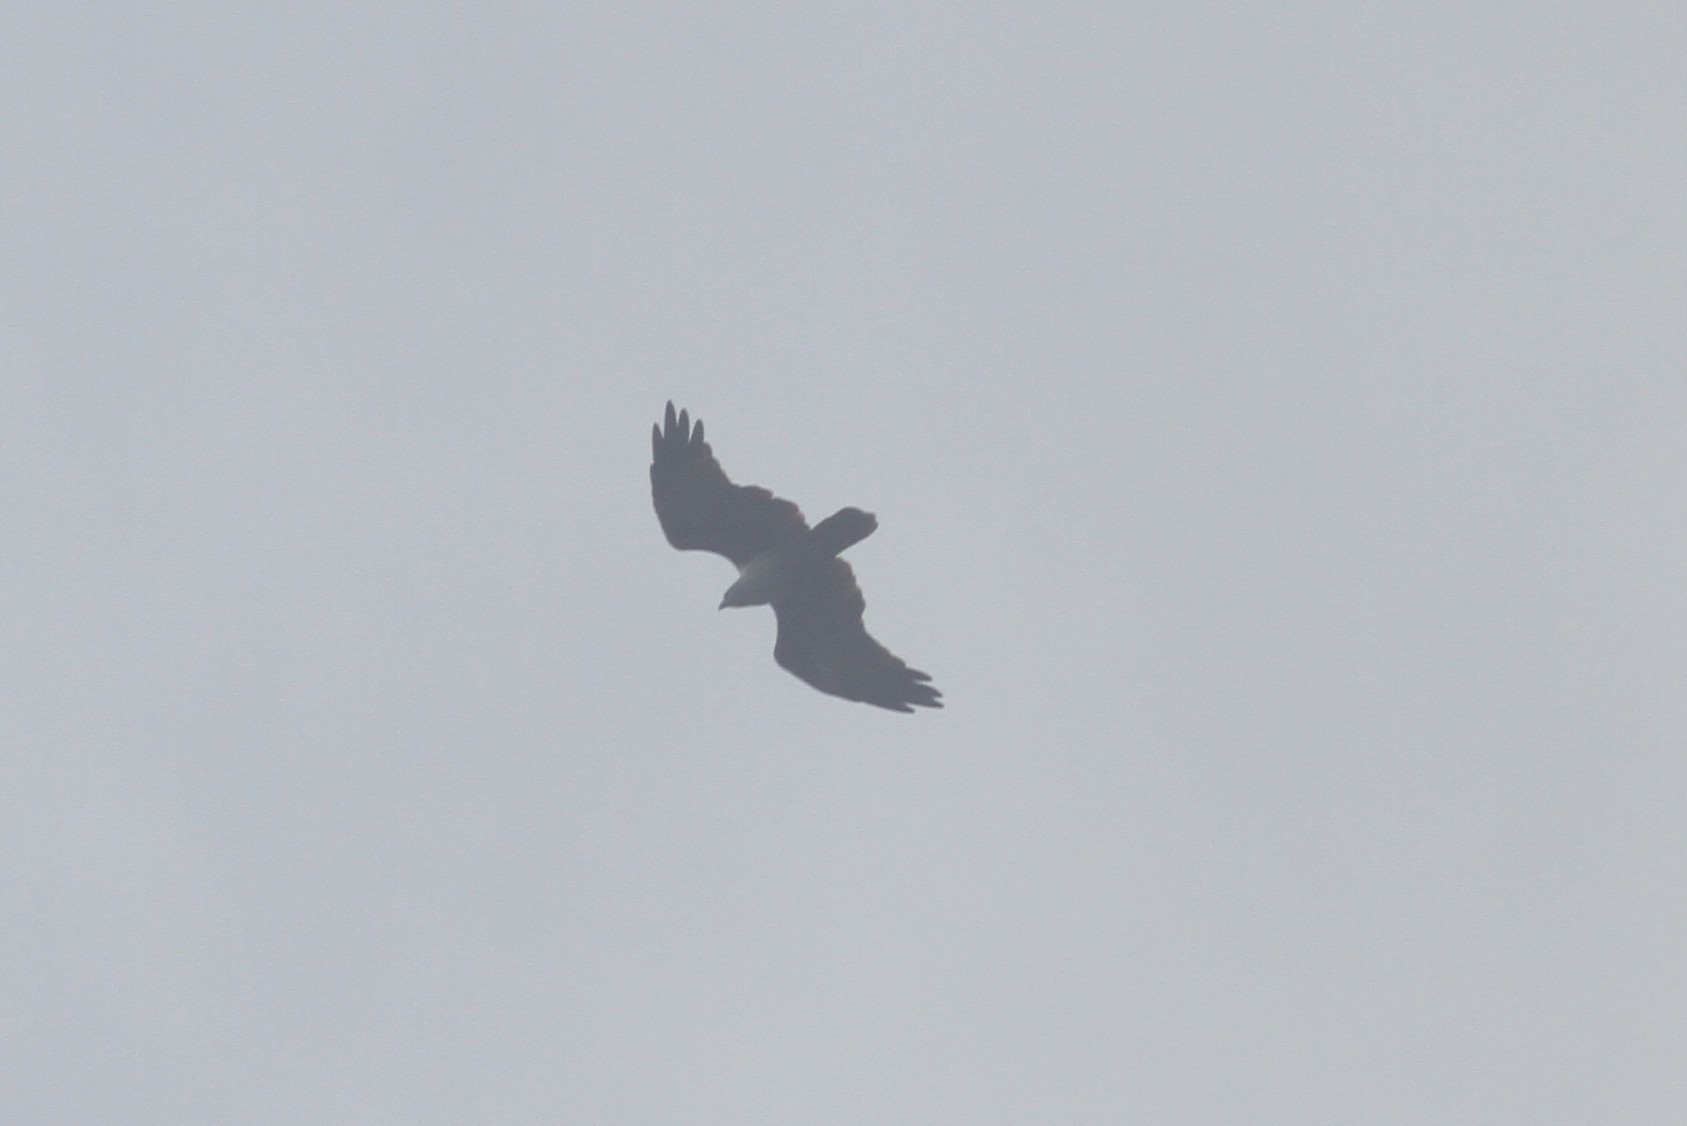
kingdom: Animalia
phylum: Chordata
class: Aves
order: Accipitriformes
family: Accipitridae
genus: Haliastur
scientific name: Haliastur indus
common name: Brahminy kite
